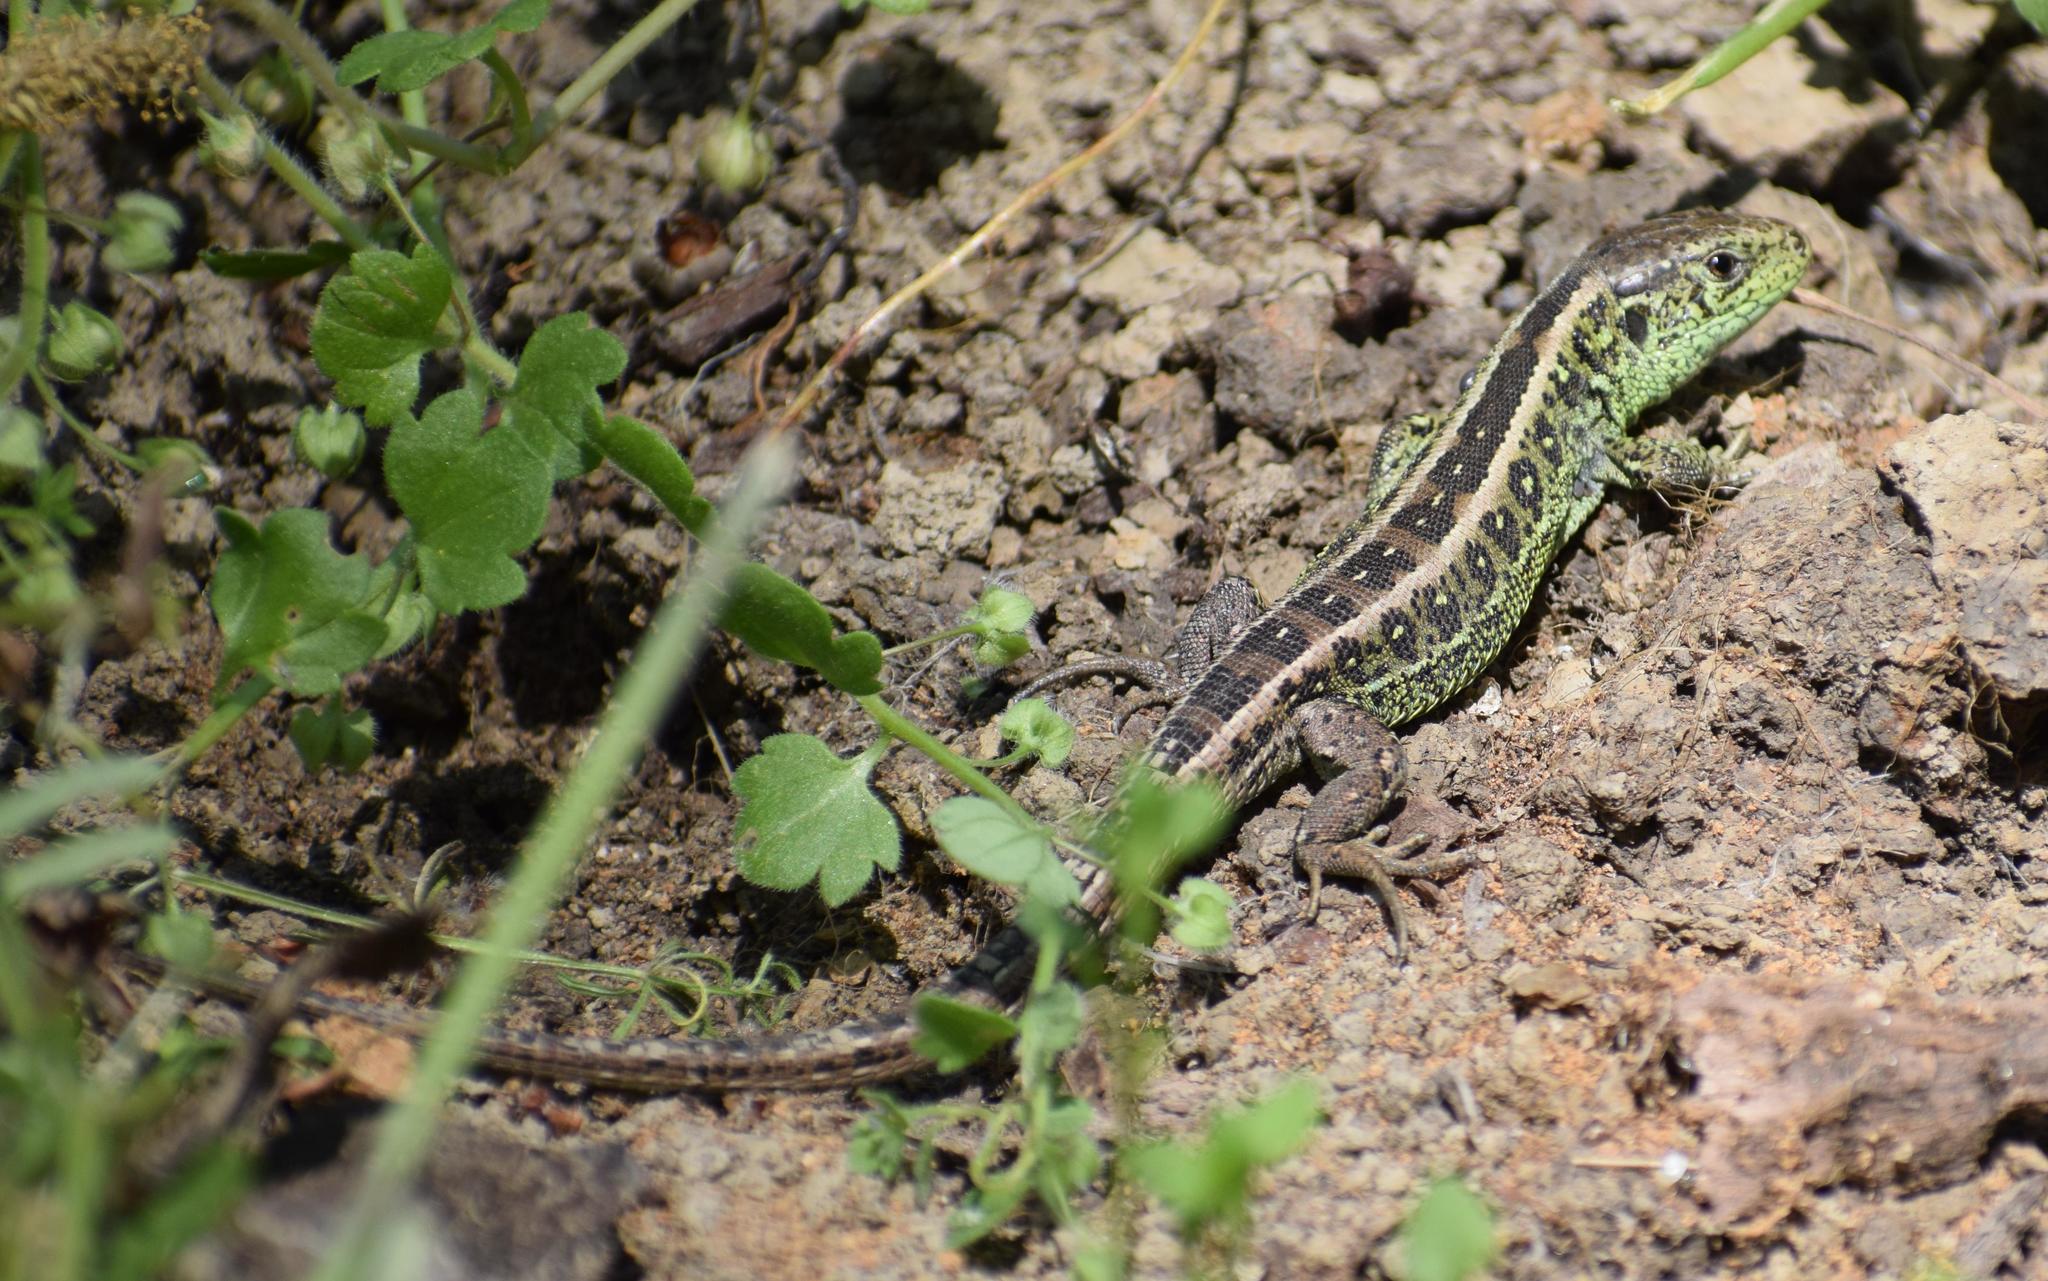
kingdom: Animalia
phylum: Chordata
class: Squamata
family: Lacertidae
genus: Lacerta
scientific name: Lacerta agilis
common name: Sand lizard
